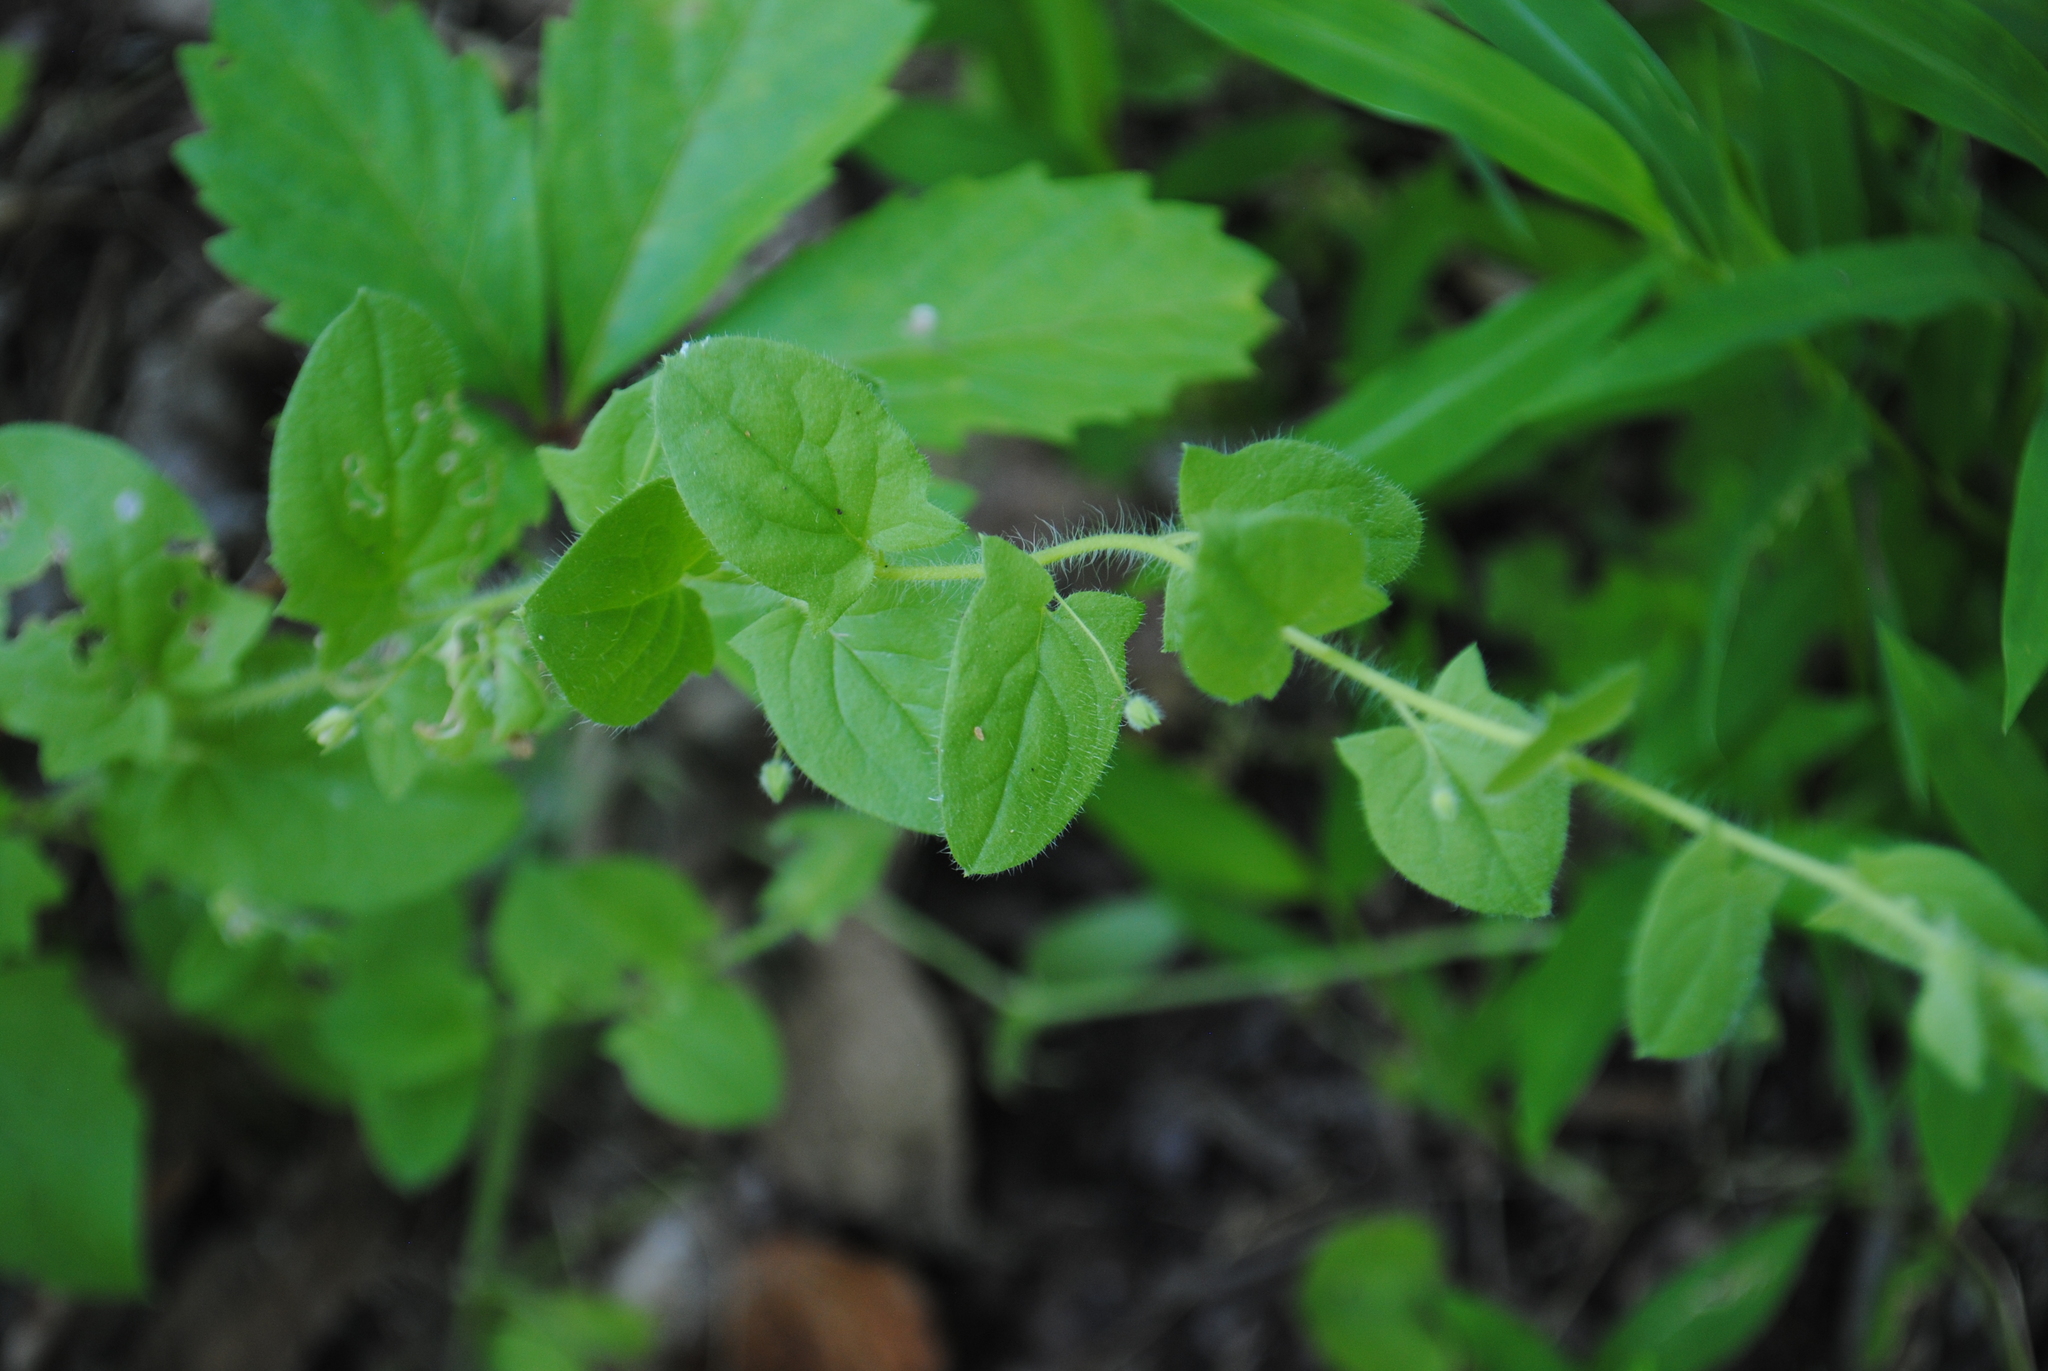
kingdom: Plantae
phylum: Tracheophyta
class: Magnoliopsida
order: Lamiales
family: Plantaginaceae
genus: Kickxia
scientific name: Kickxia elatine
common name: Sharp-leaved fluellen
